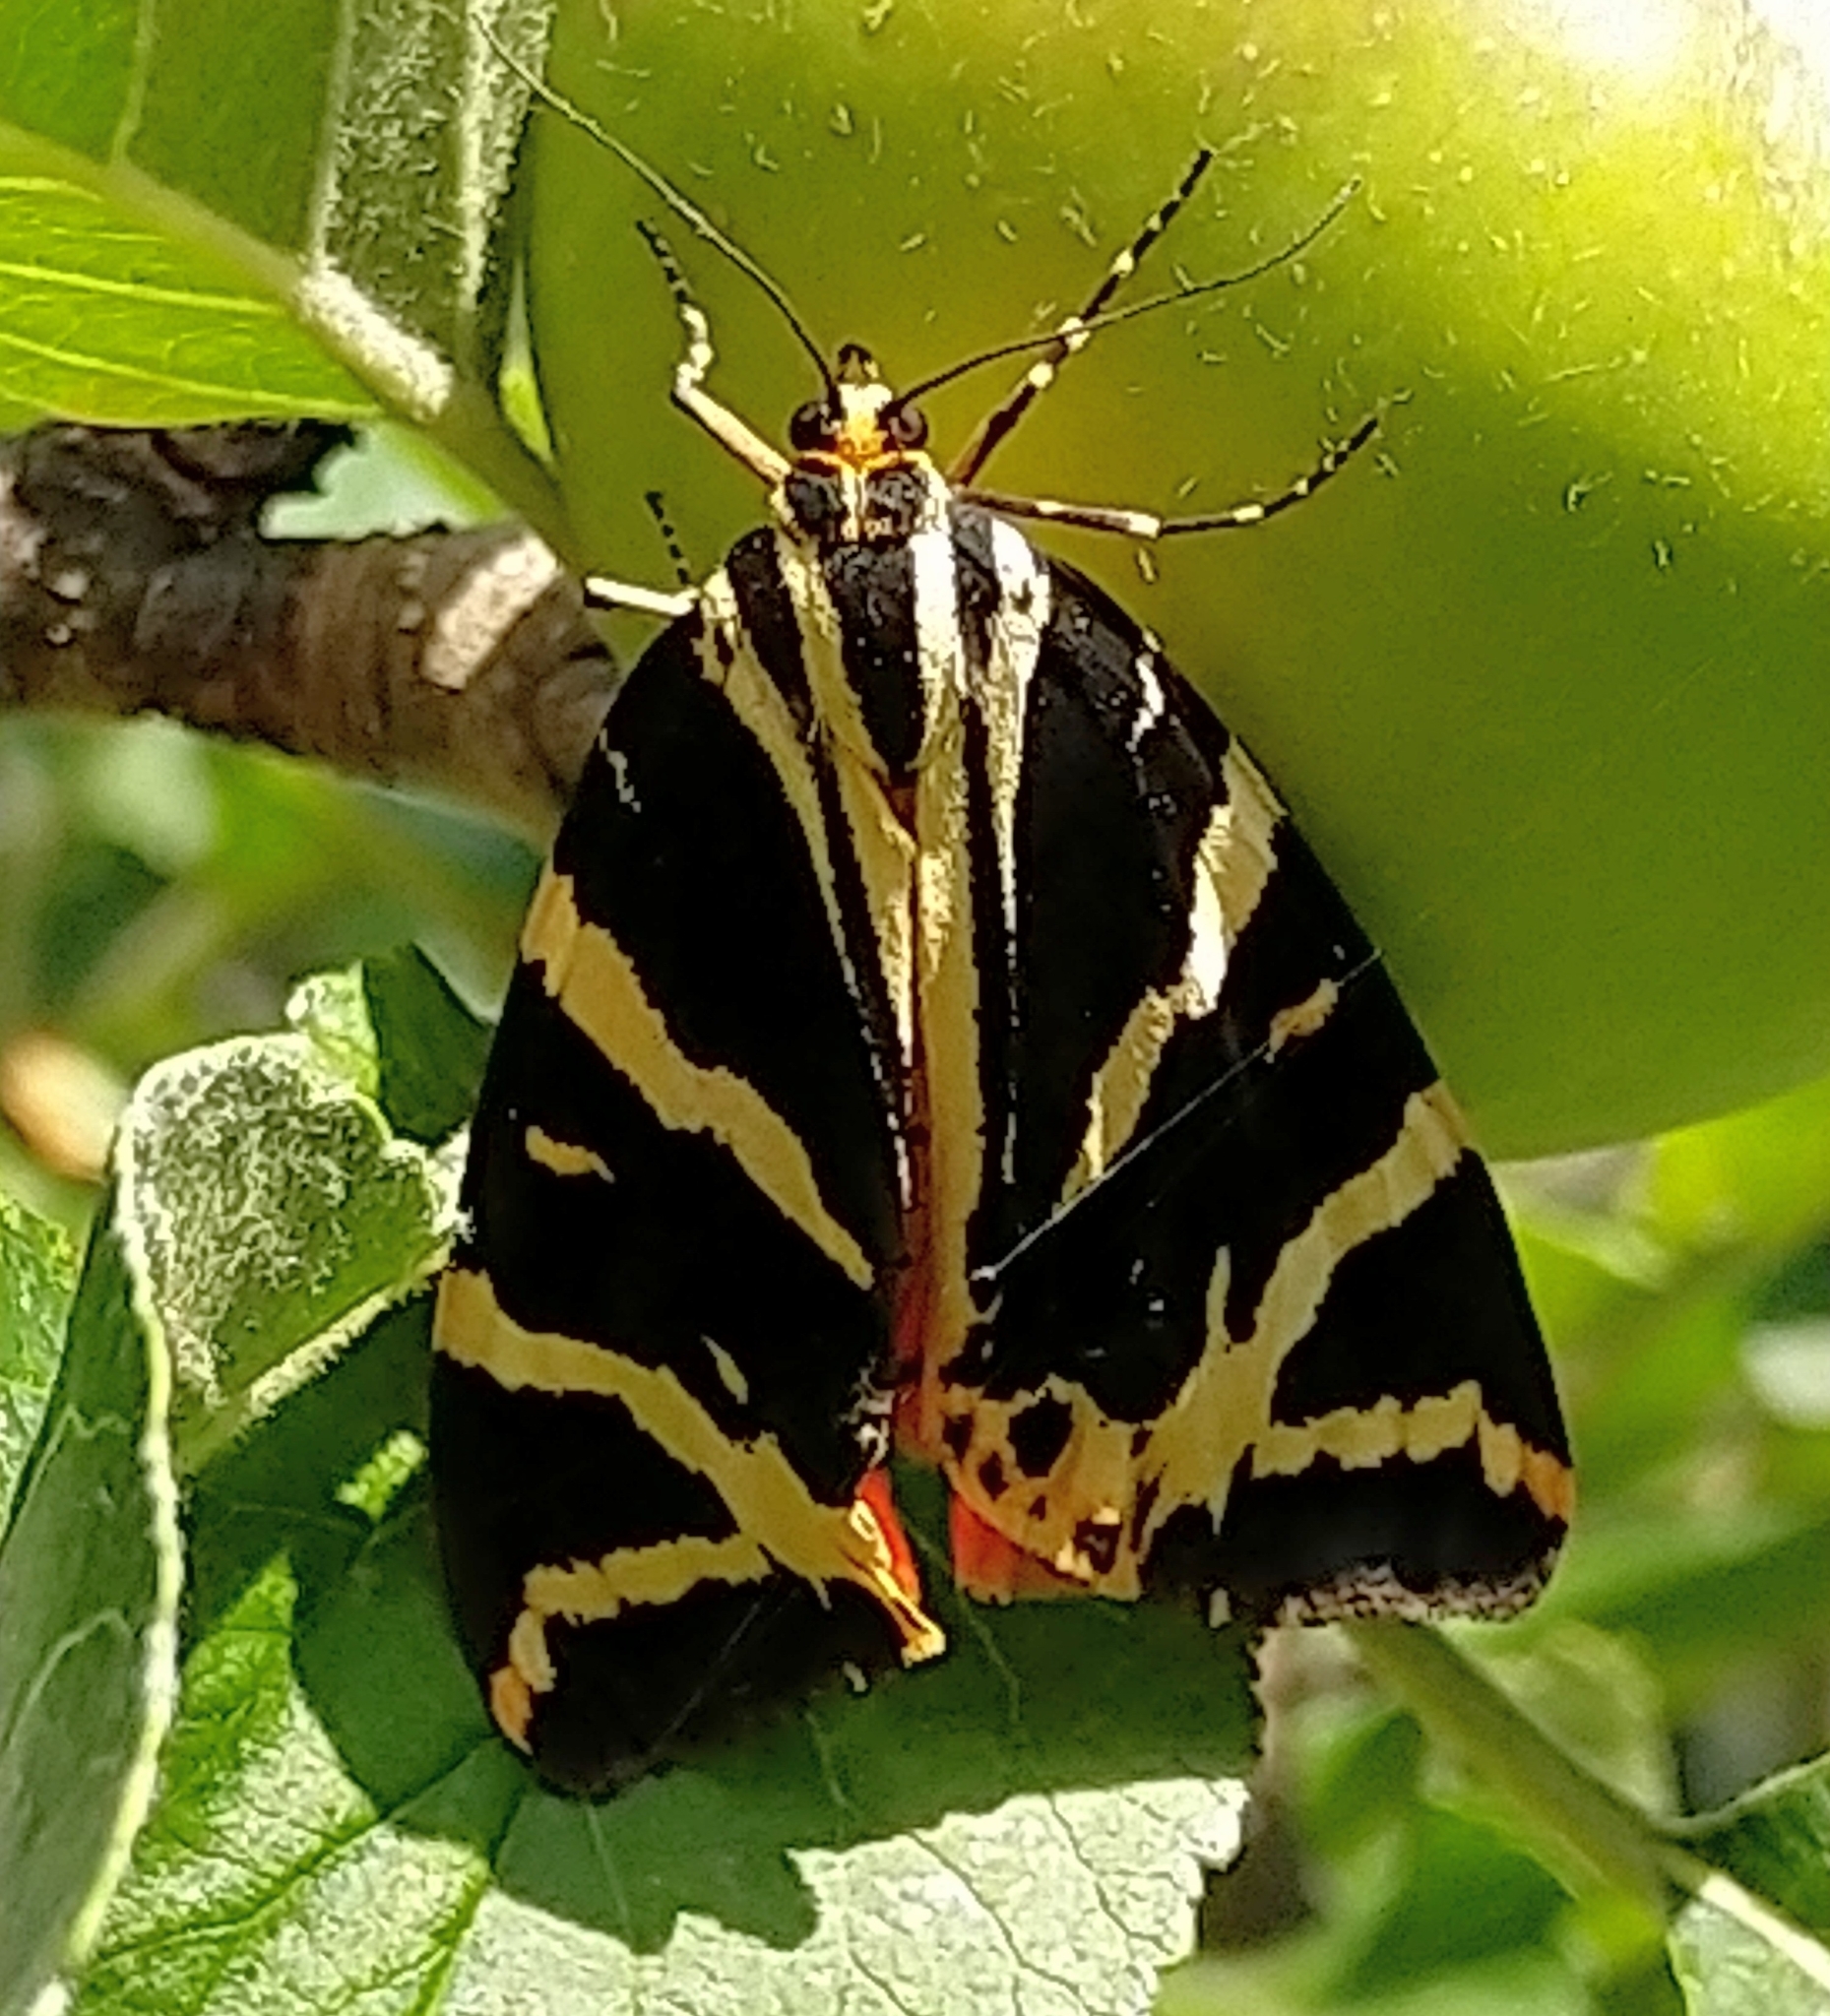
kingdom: Animalia
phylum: Arthropoda
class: Insecta
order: Lepidoptera
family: Erebidae
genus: Euplagia
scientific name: Euplagia quadripunctaria
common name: Jersey tiger
